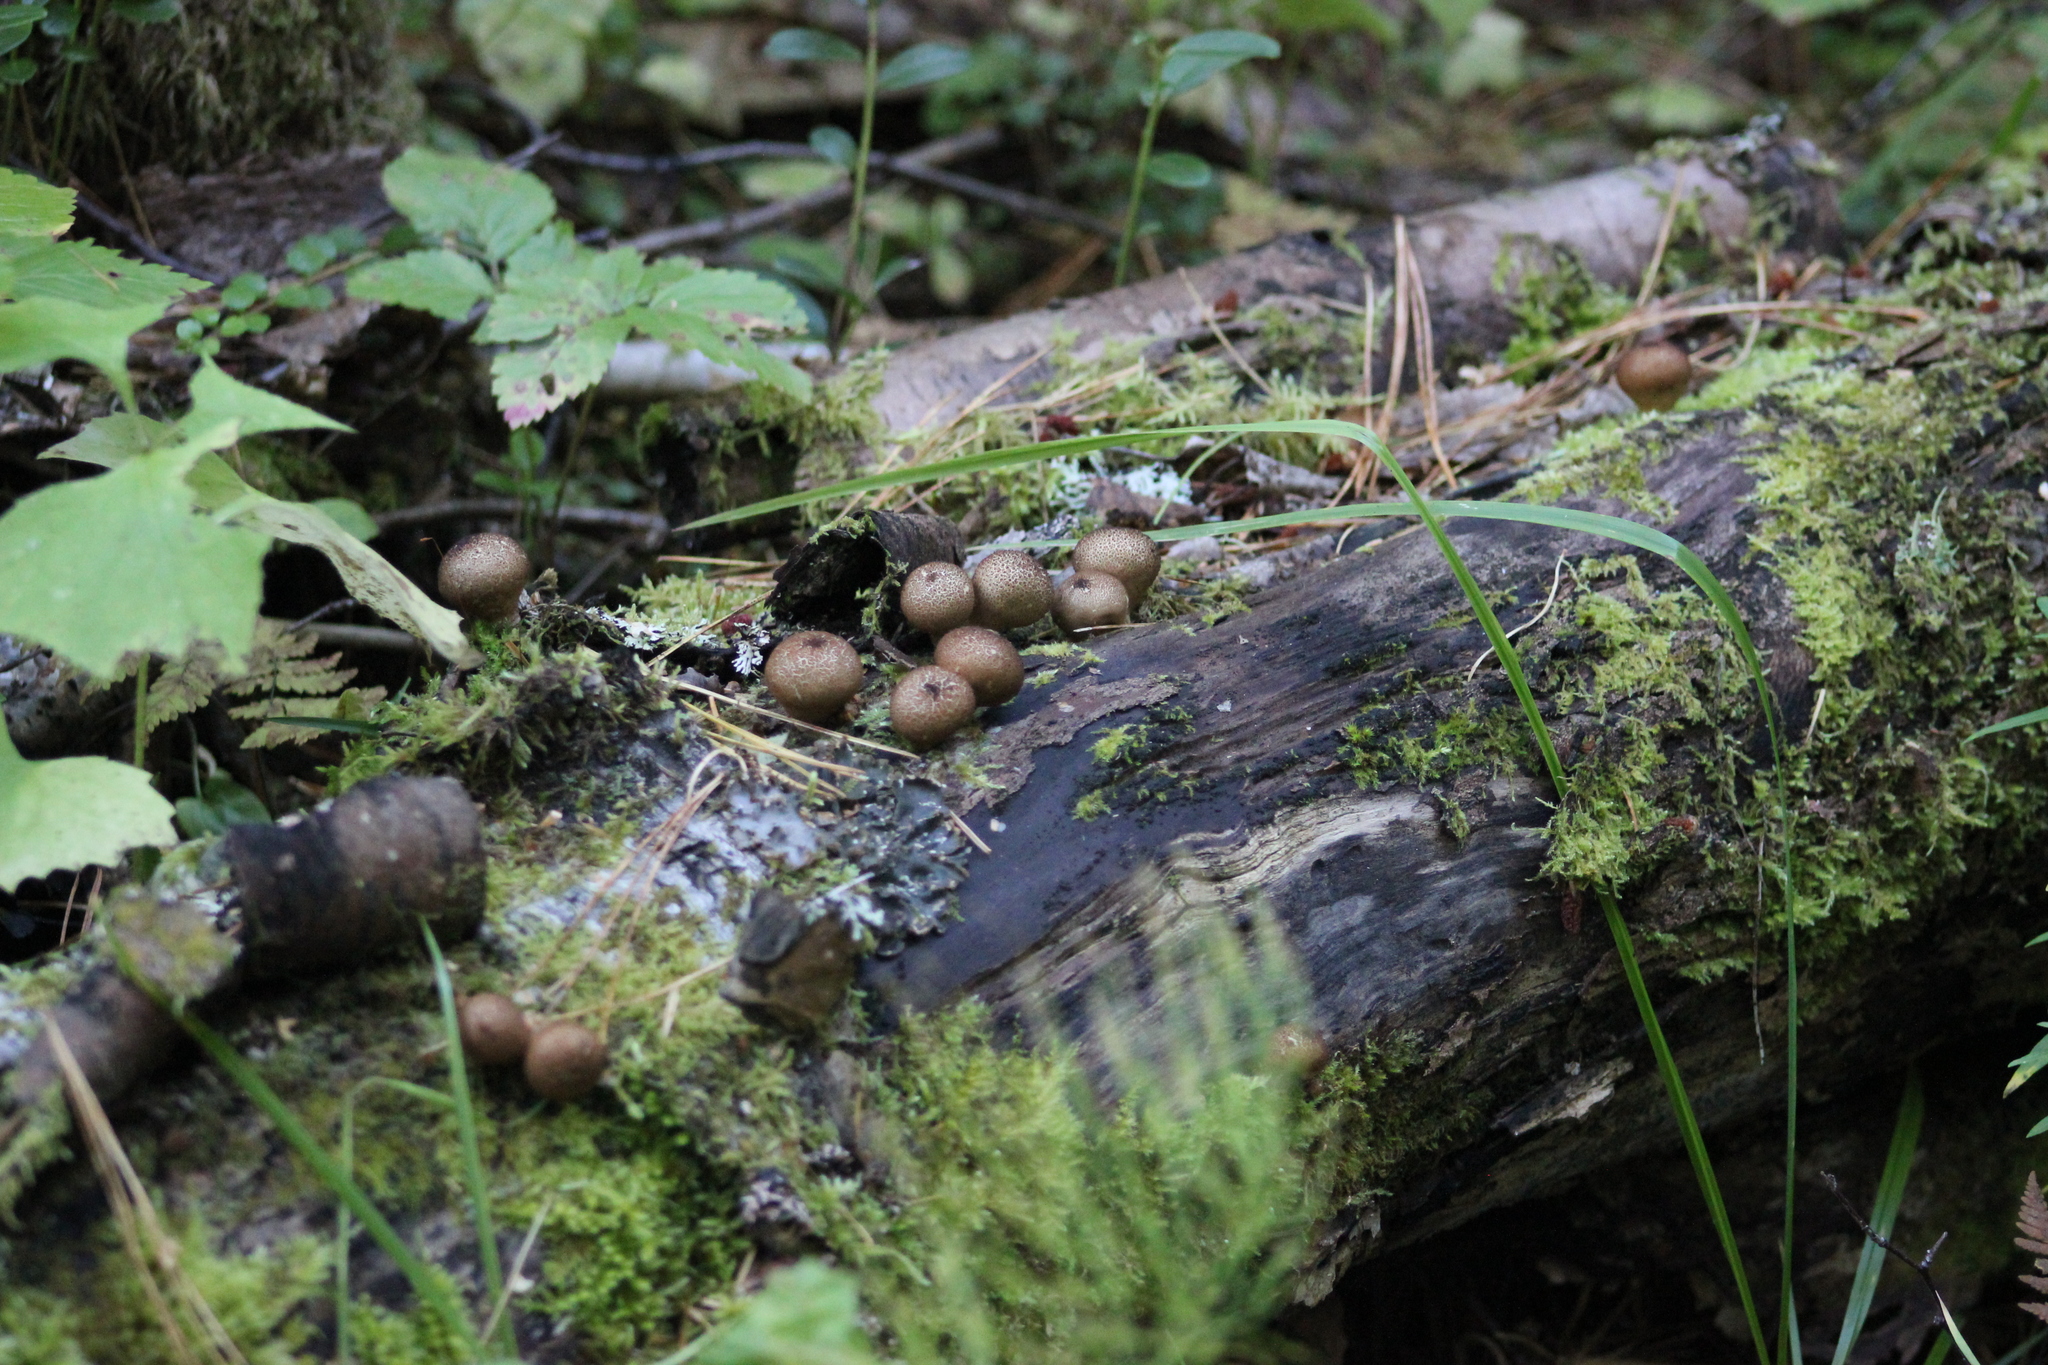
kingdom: Fungi
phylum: Basidiomycota
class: Agaricomycetes
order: Agaricales
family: Lycoperdaceae
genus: Apioperdon
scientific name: Apioperdon pyriforme
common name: Pear-shaped puffball
